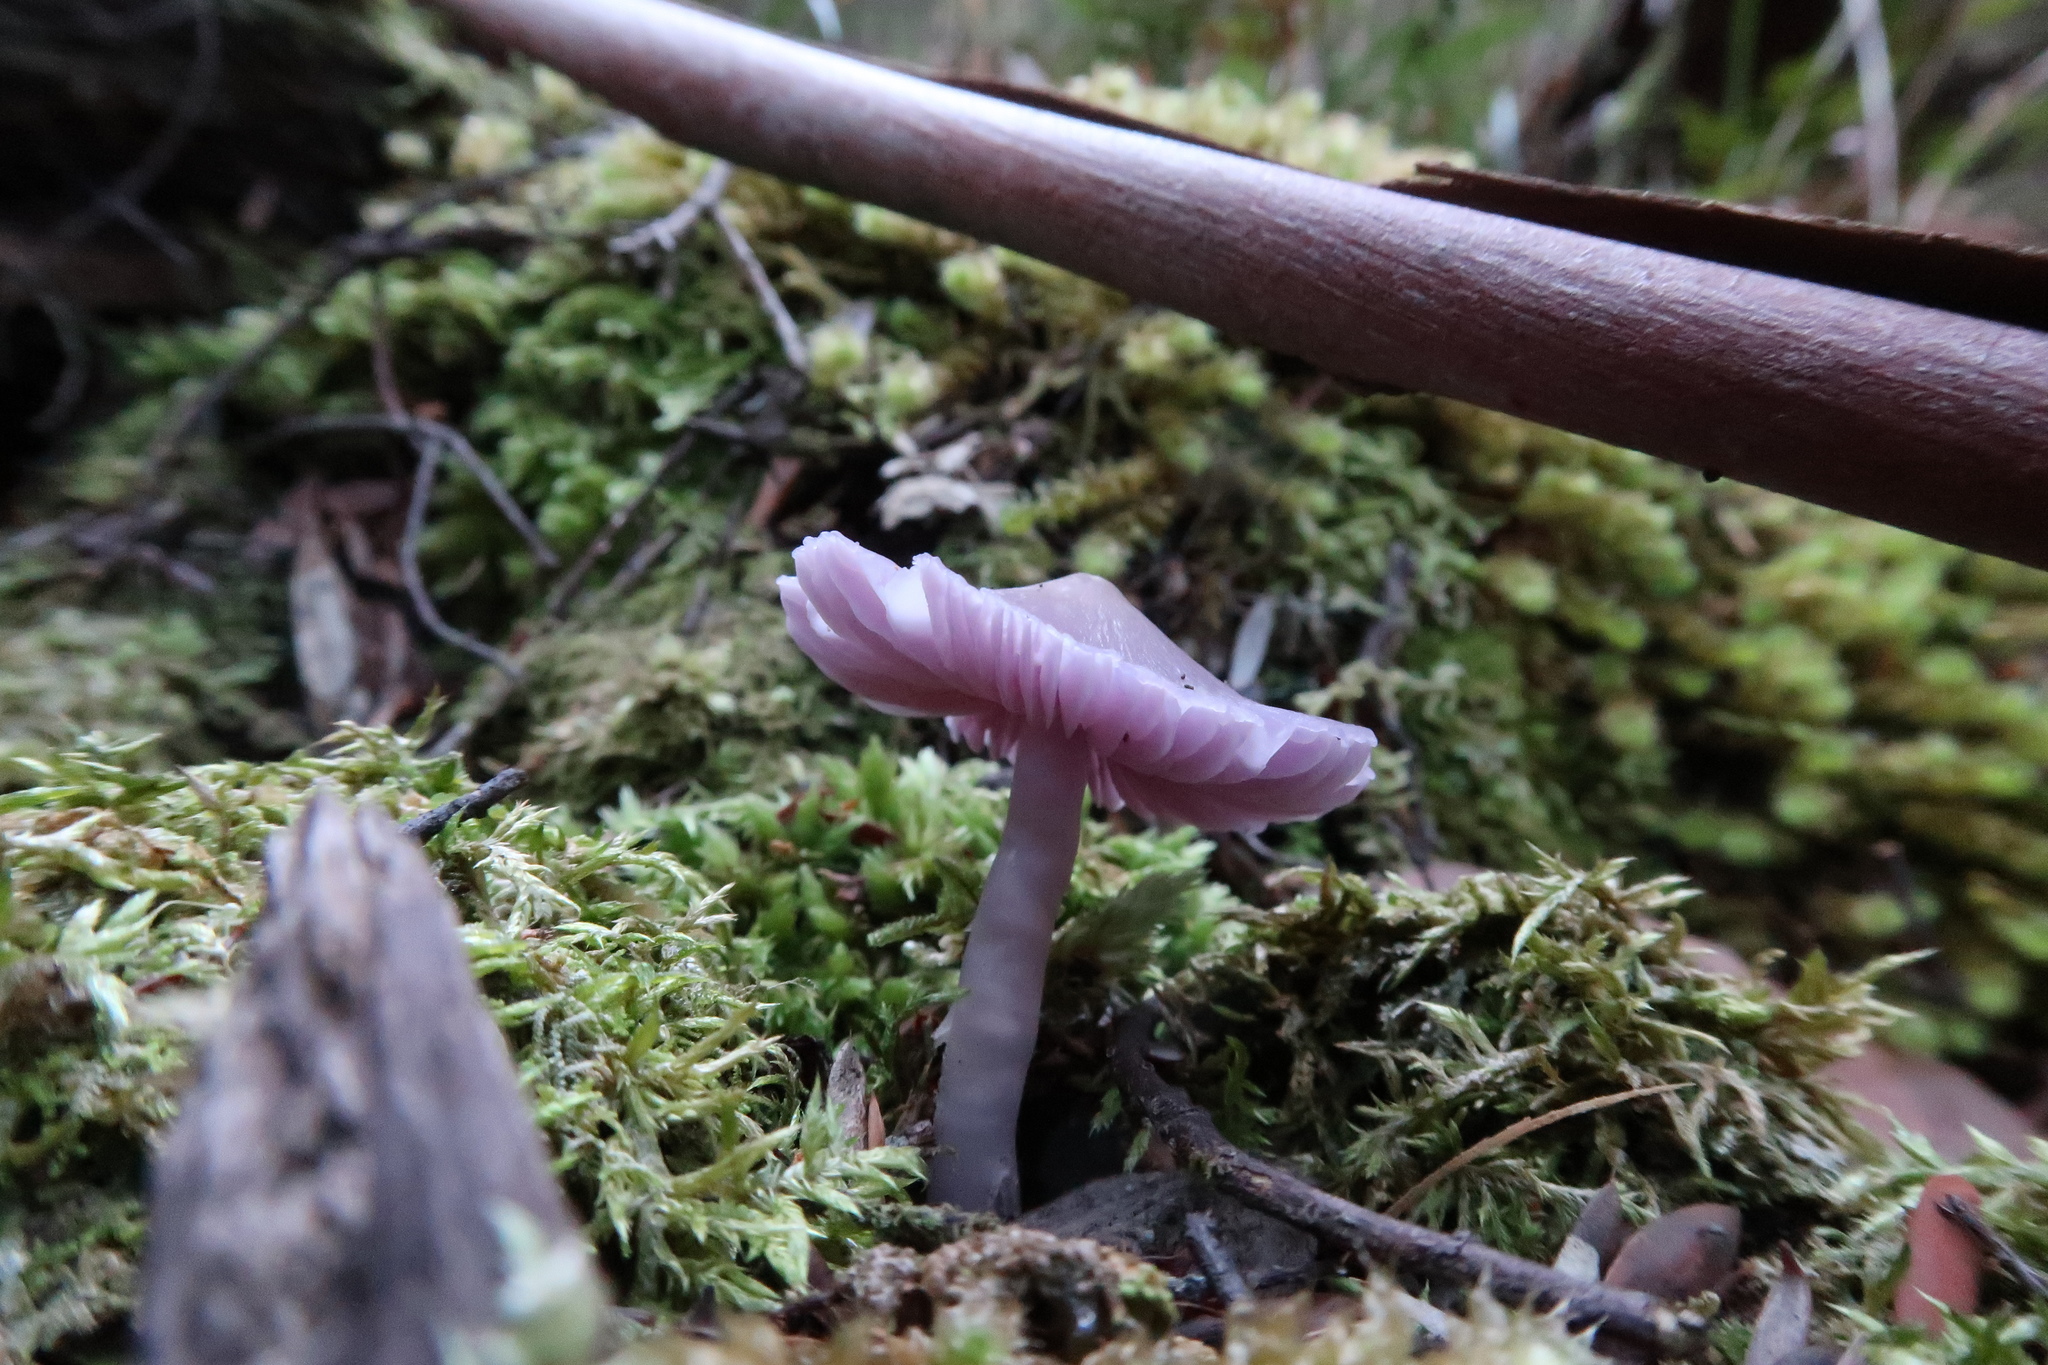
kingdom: Fungi
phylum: Basidiomycota
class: Agaricomycetes
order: Agaricales
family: Hygrophoraceae
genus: Porpolomopsis
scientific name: Porpolomopsis lewelliniae
